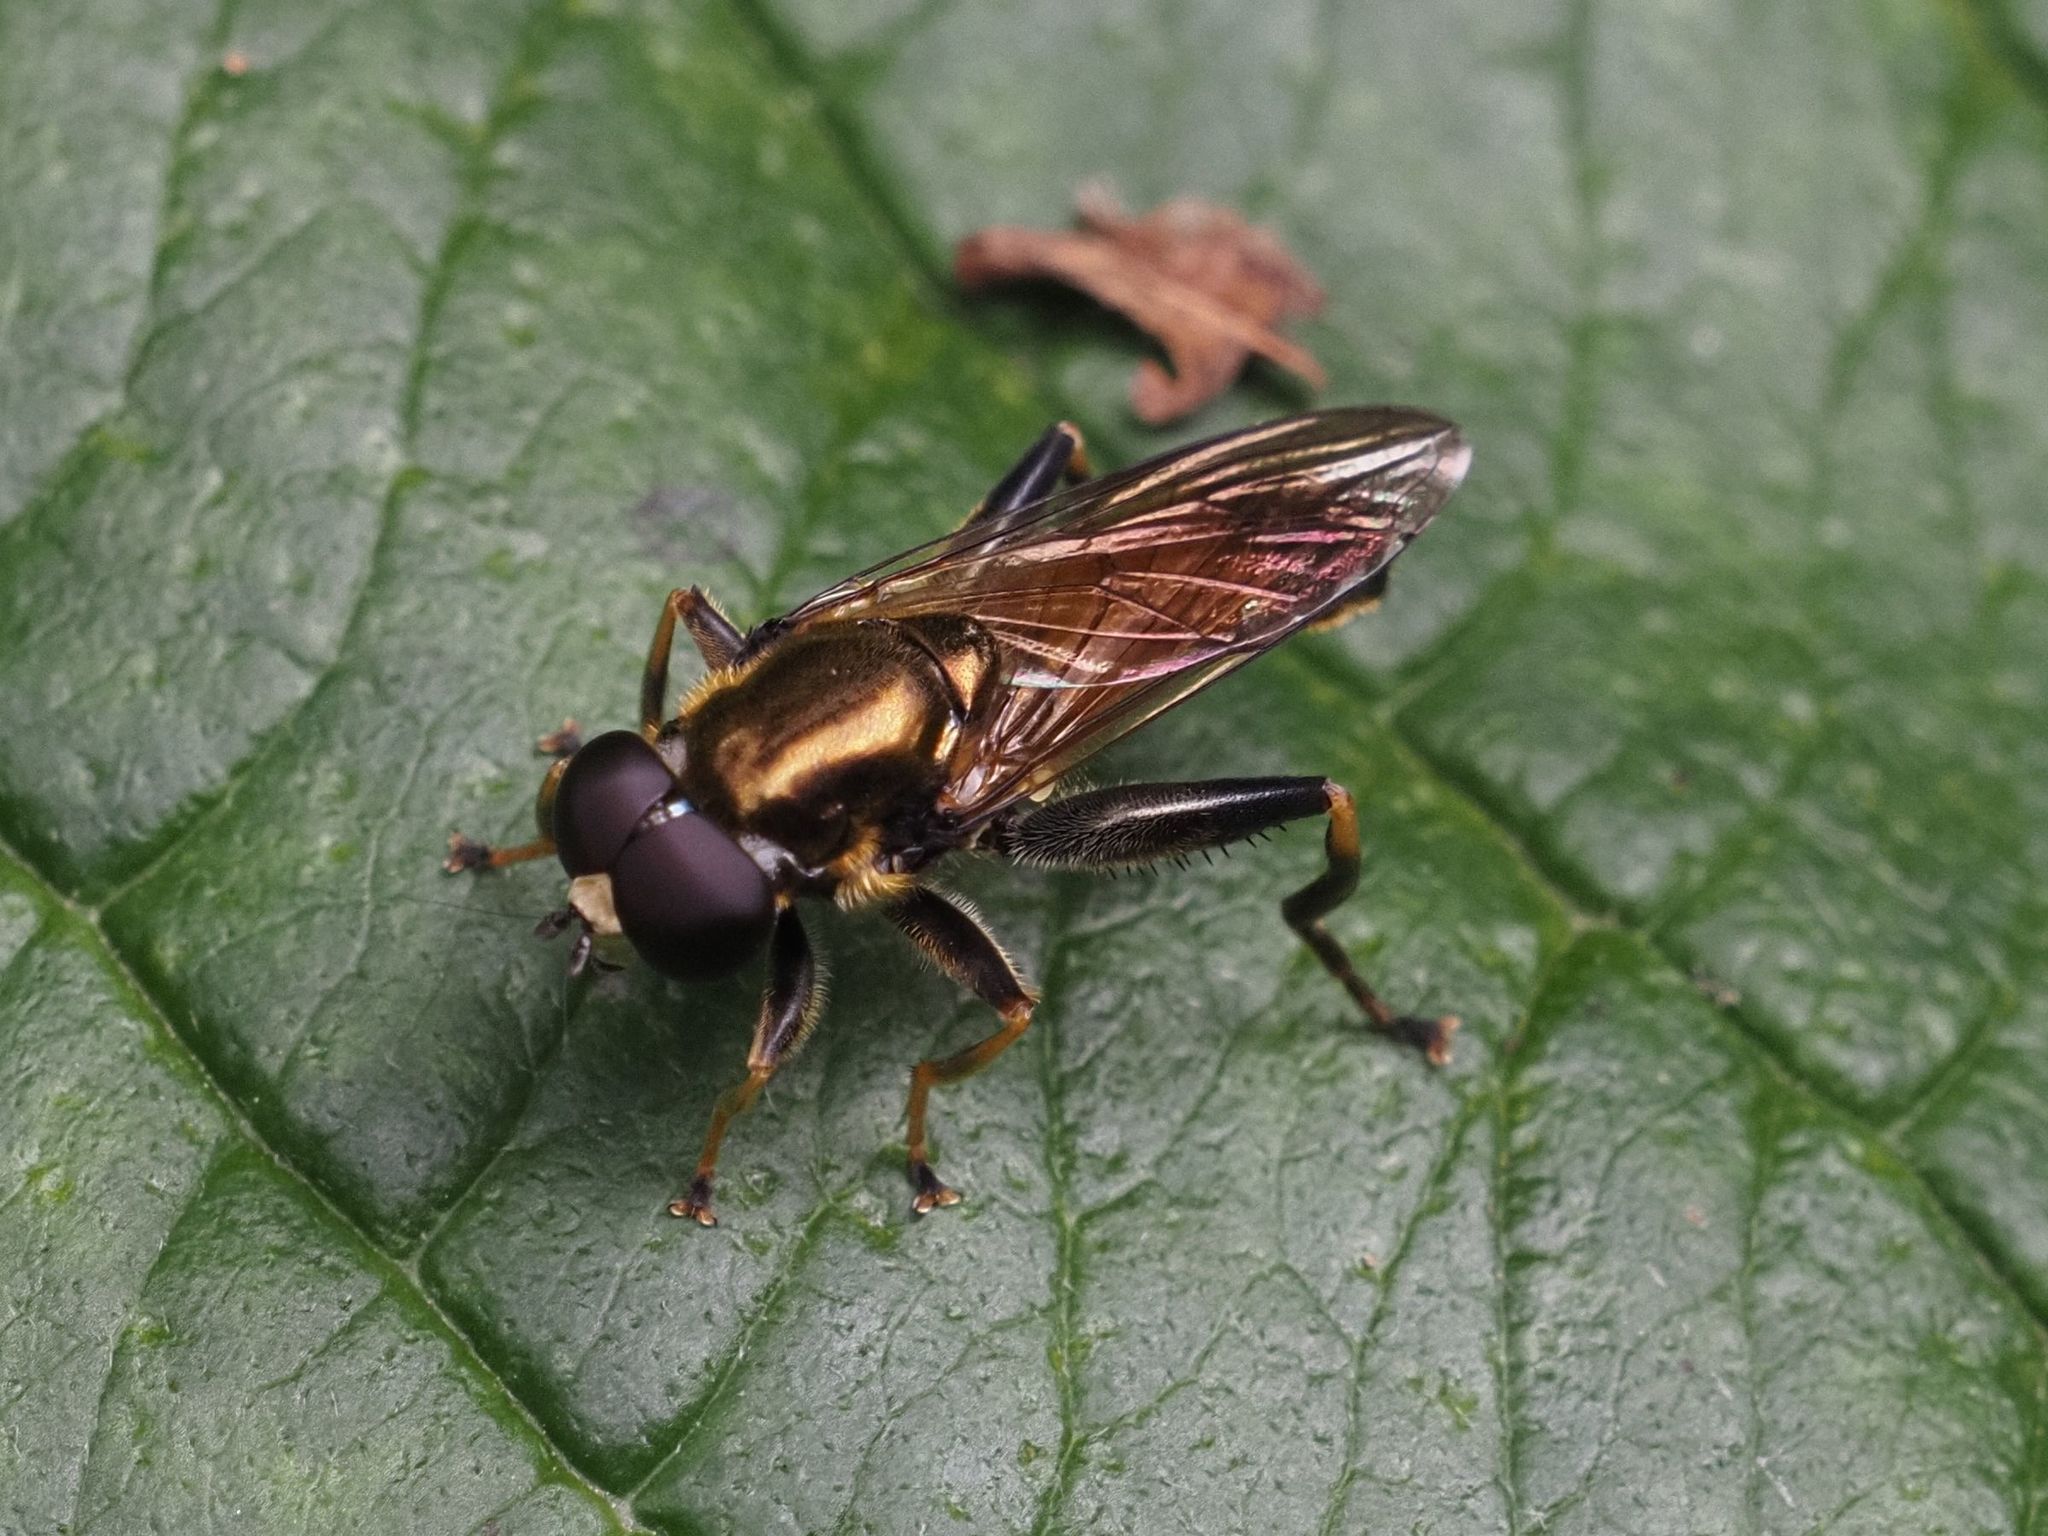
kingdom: Animalia
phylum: Arthropoda
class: Insecta
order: Diptera
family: Syrphidae
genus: Xylota
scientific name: Xylota segnis
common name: Brown-toed forest fly
